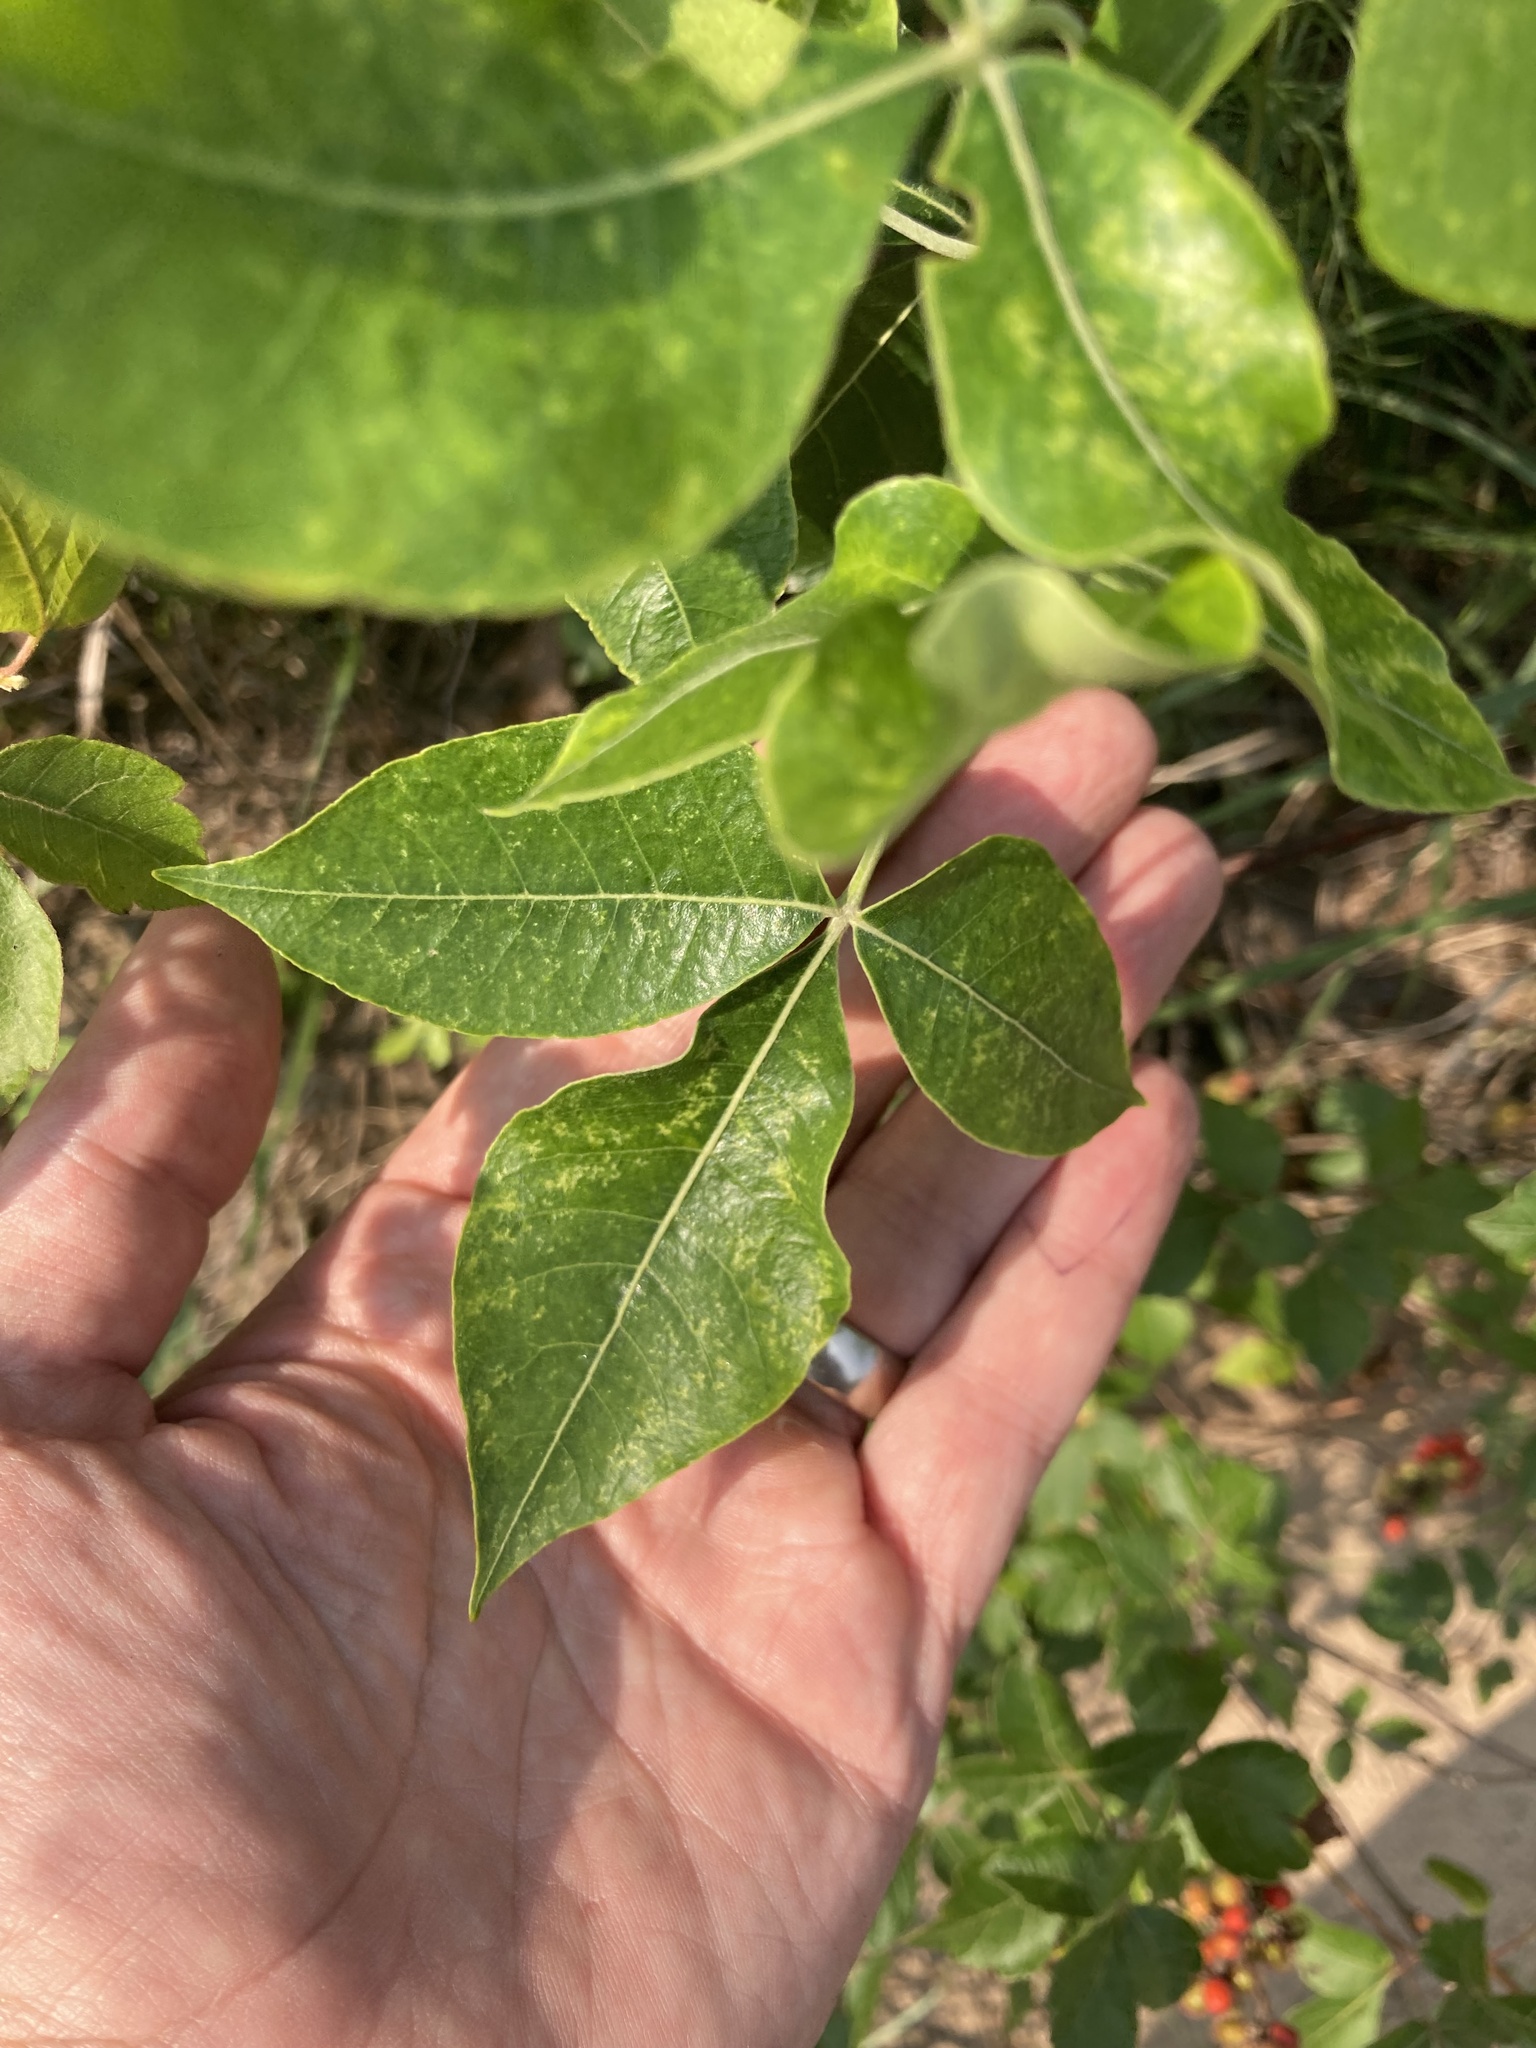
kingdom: Plantae
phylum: Tracheophyta
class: Magnoliopsida
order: Sapindales
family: Anacardiaceae
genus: Rhus
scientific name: Rhus aromatica
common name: Aromatic sumac
